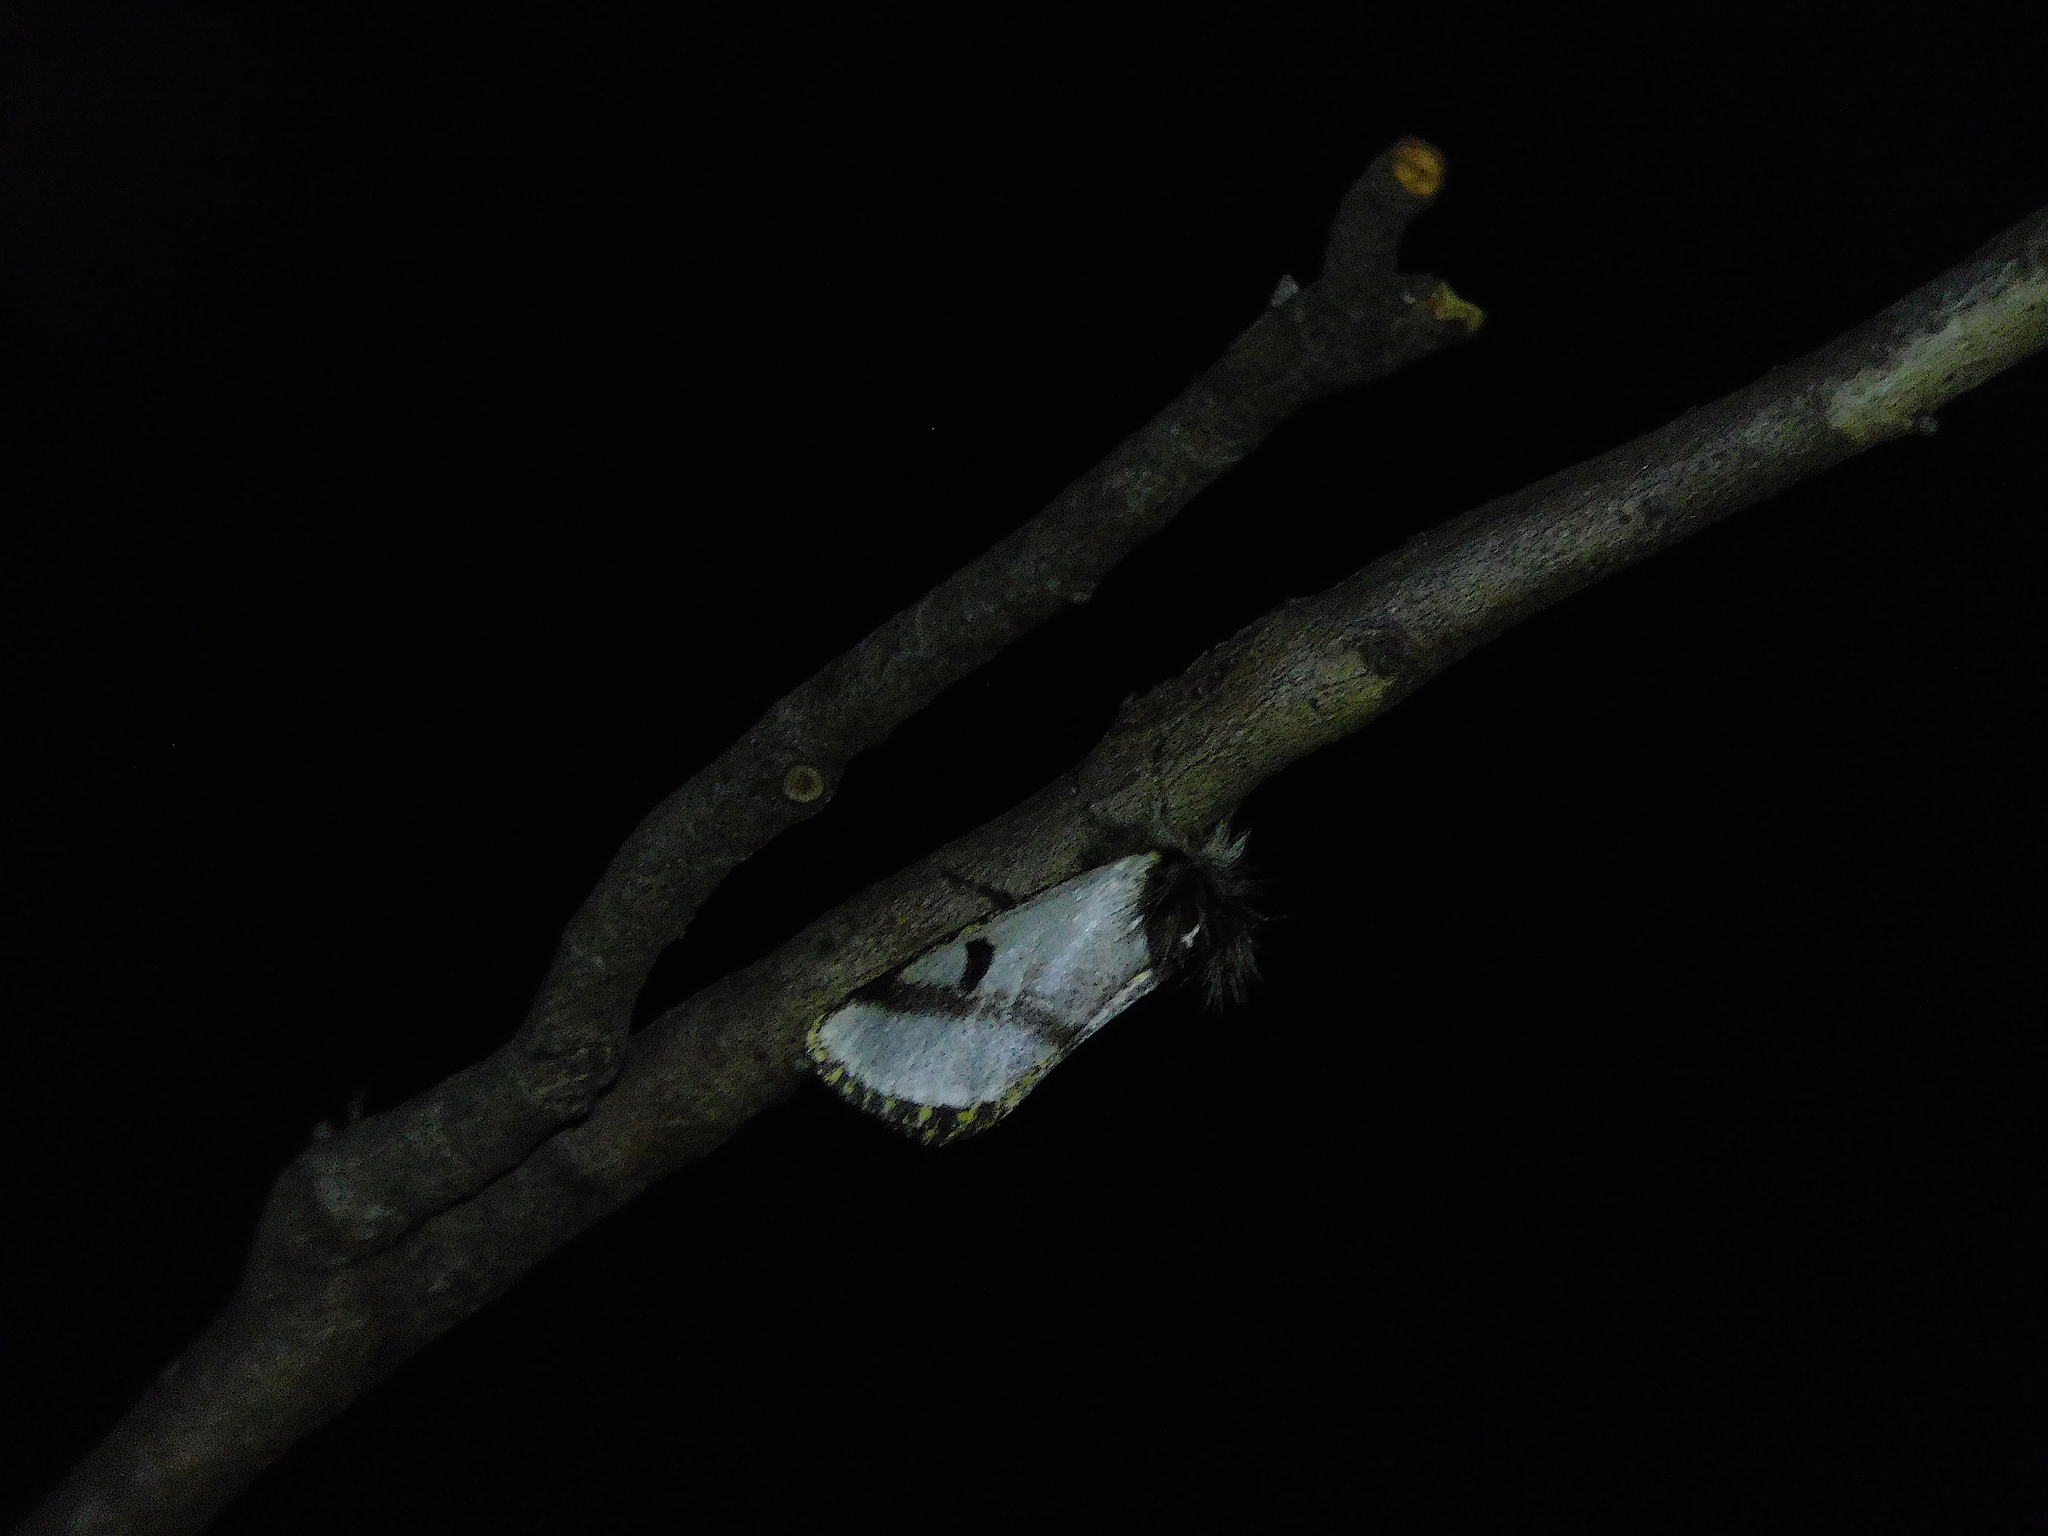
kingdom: Animalia
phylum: Arthropoda
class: Insecta
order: Lepidoptera
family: Notodontidae
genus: Epicoma
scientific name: Epicoma melanospila
